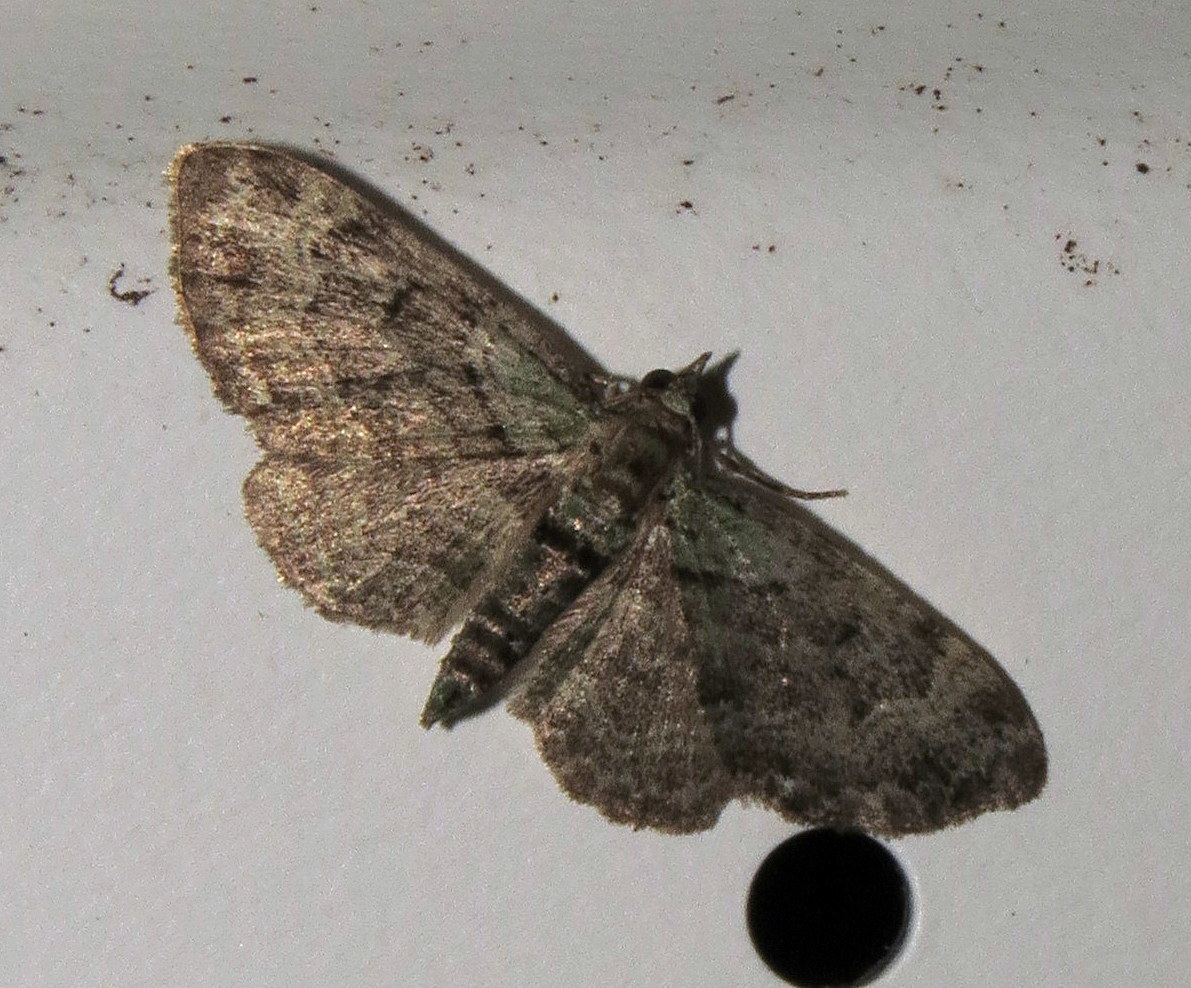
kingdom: Animalia
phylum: Arthropoda
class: Insecta
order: Lepidoptera
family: Geometridae
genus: Pasiphila
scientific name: Pasiphila rectangulata
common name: Green pug
